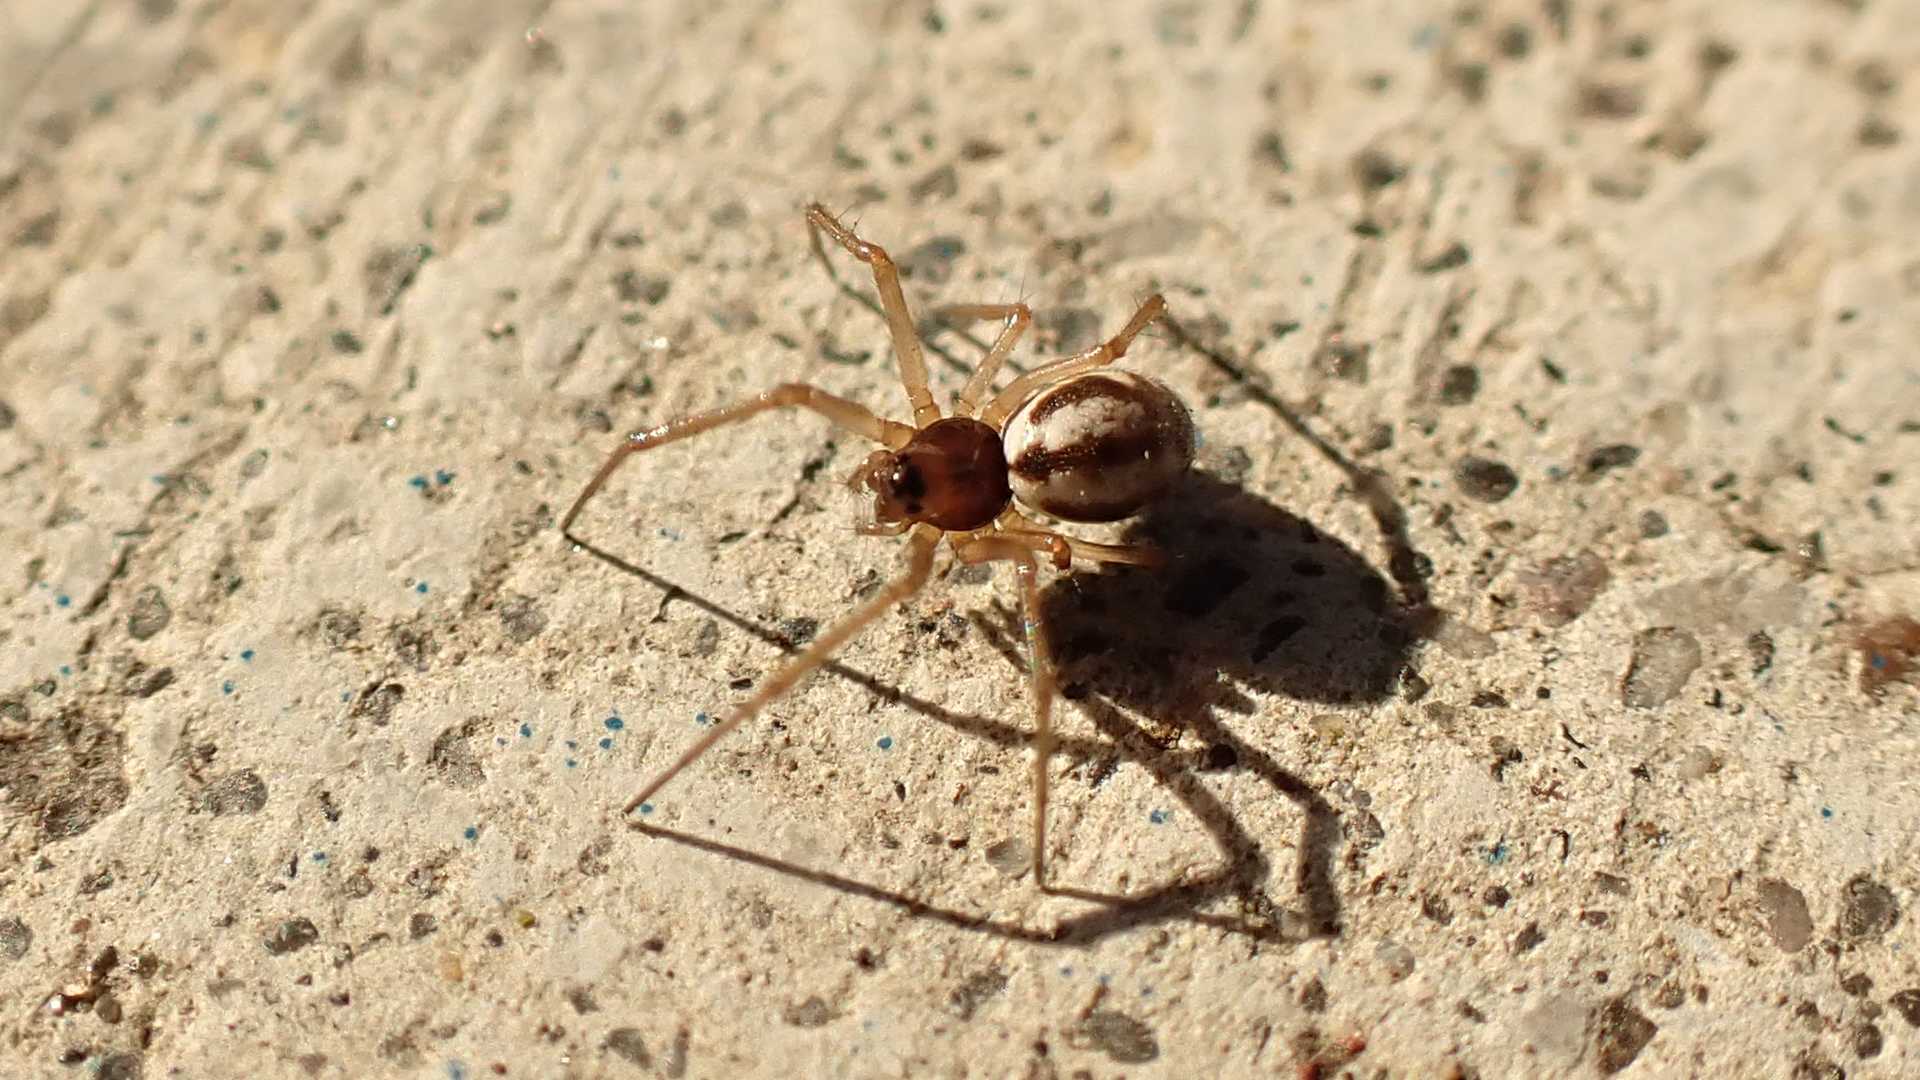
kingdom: Animalia
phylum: Arthropoda
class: Arachnida
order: Araneae
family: Linyphiidae
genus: Microlinyphia
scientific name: Microlinyphia pusilla
